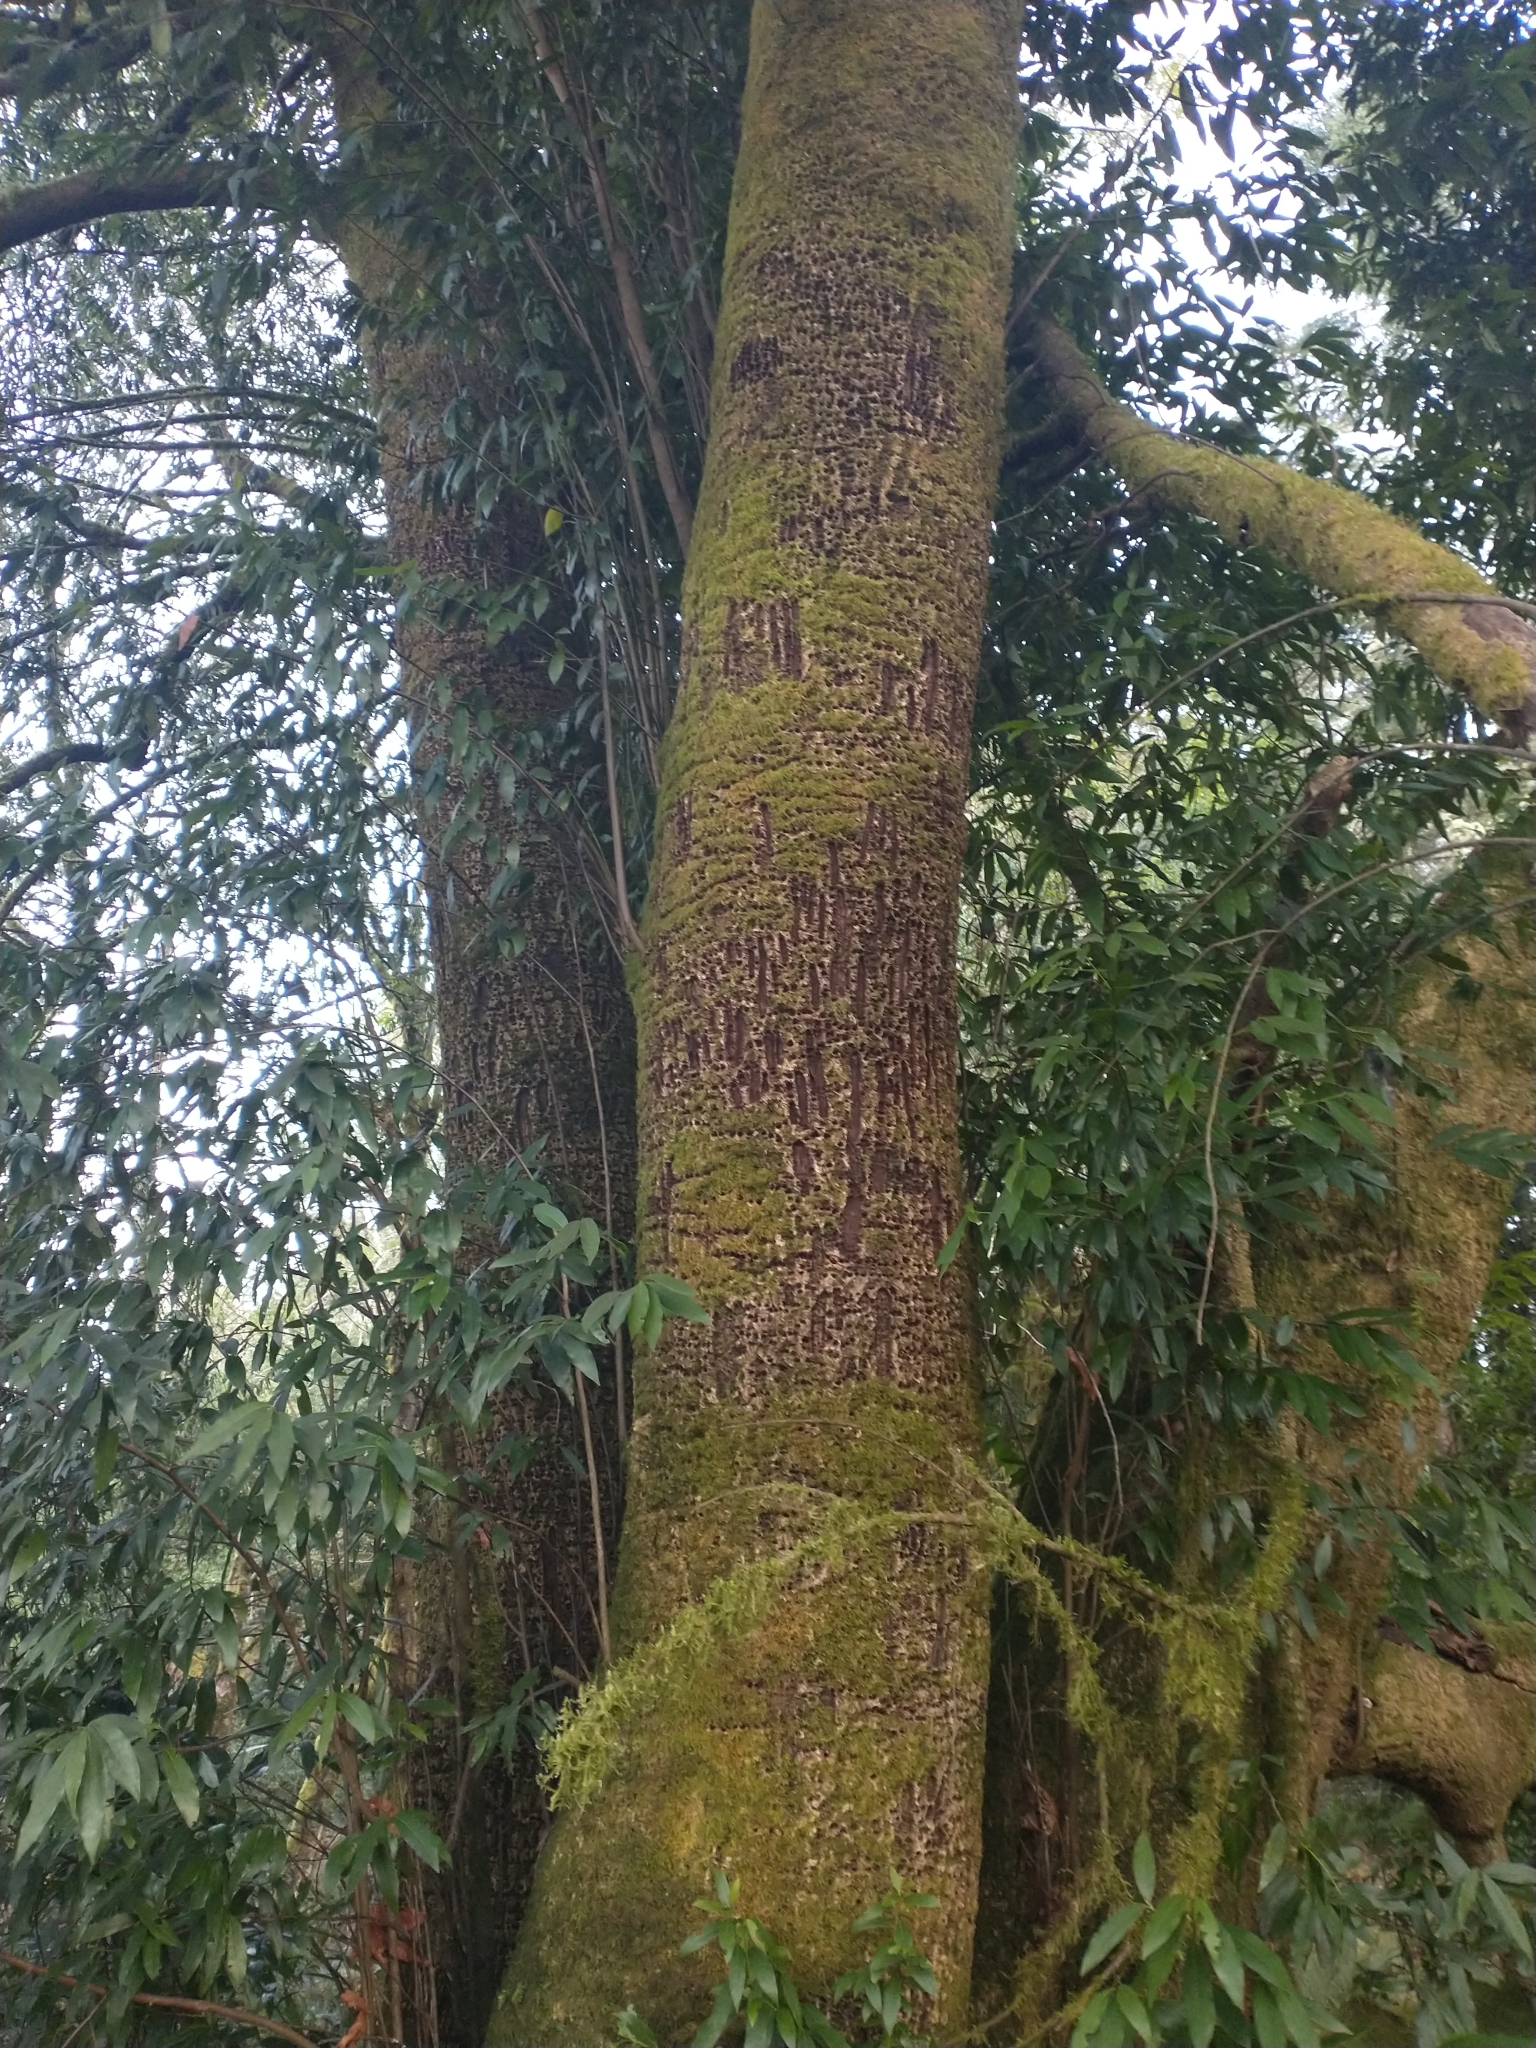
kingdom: Plantae
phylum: Tracheophyta
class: Magnoliopsida
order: Laurales
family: Lauraceae
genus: Umbellularia
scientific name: Umbellularia californica
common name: California bay
